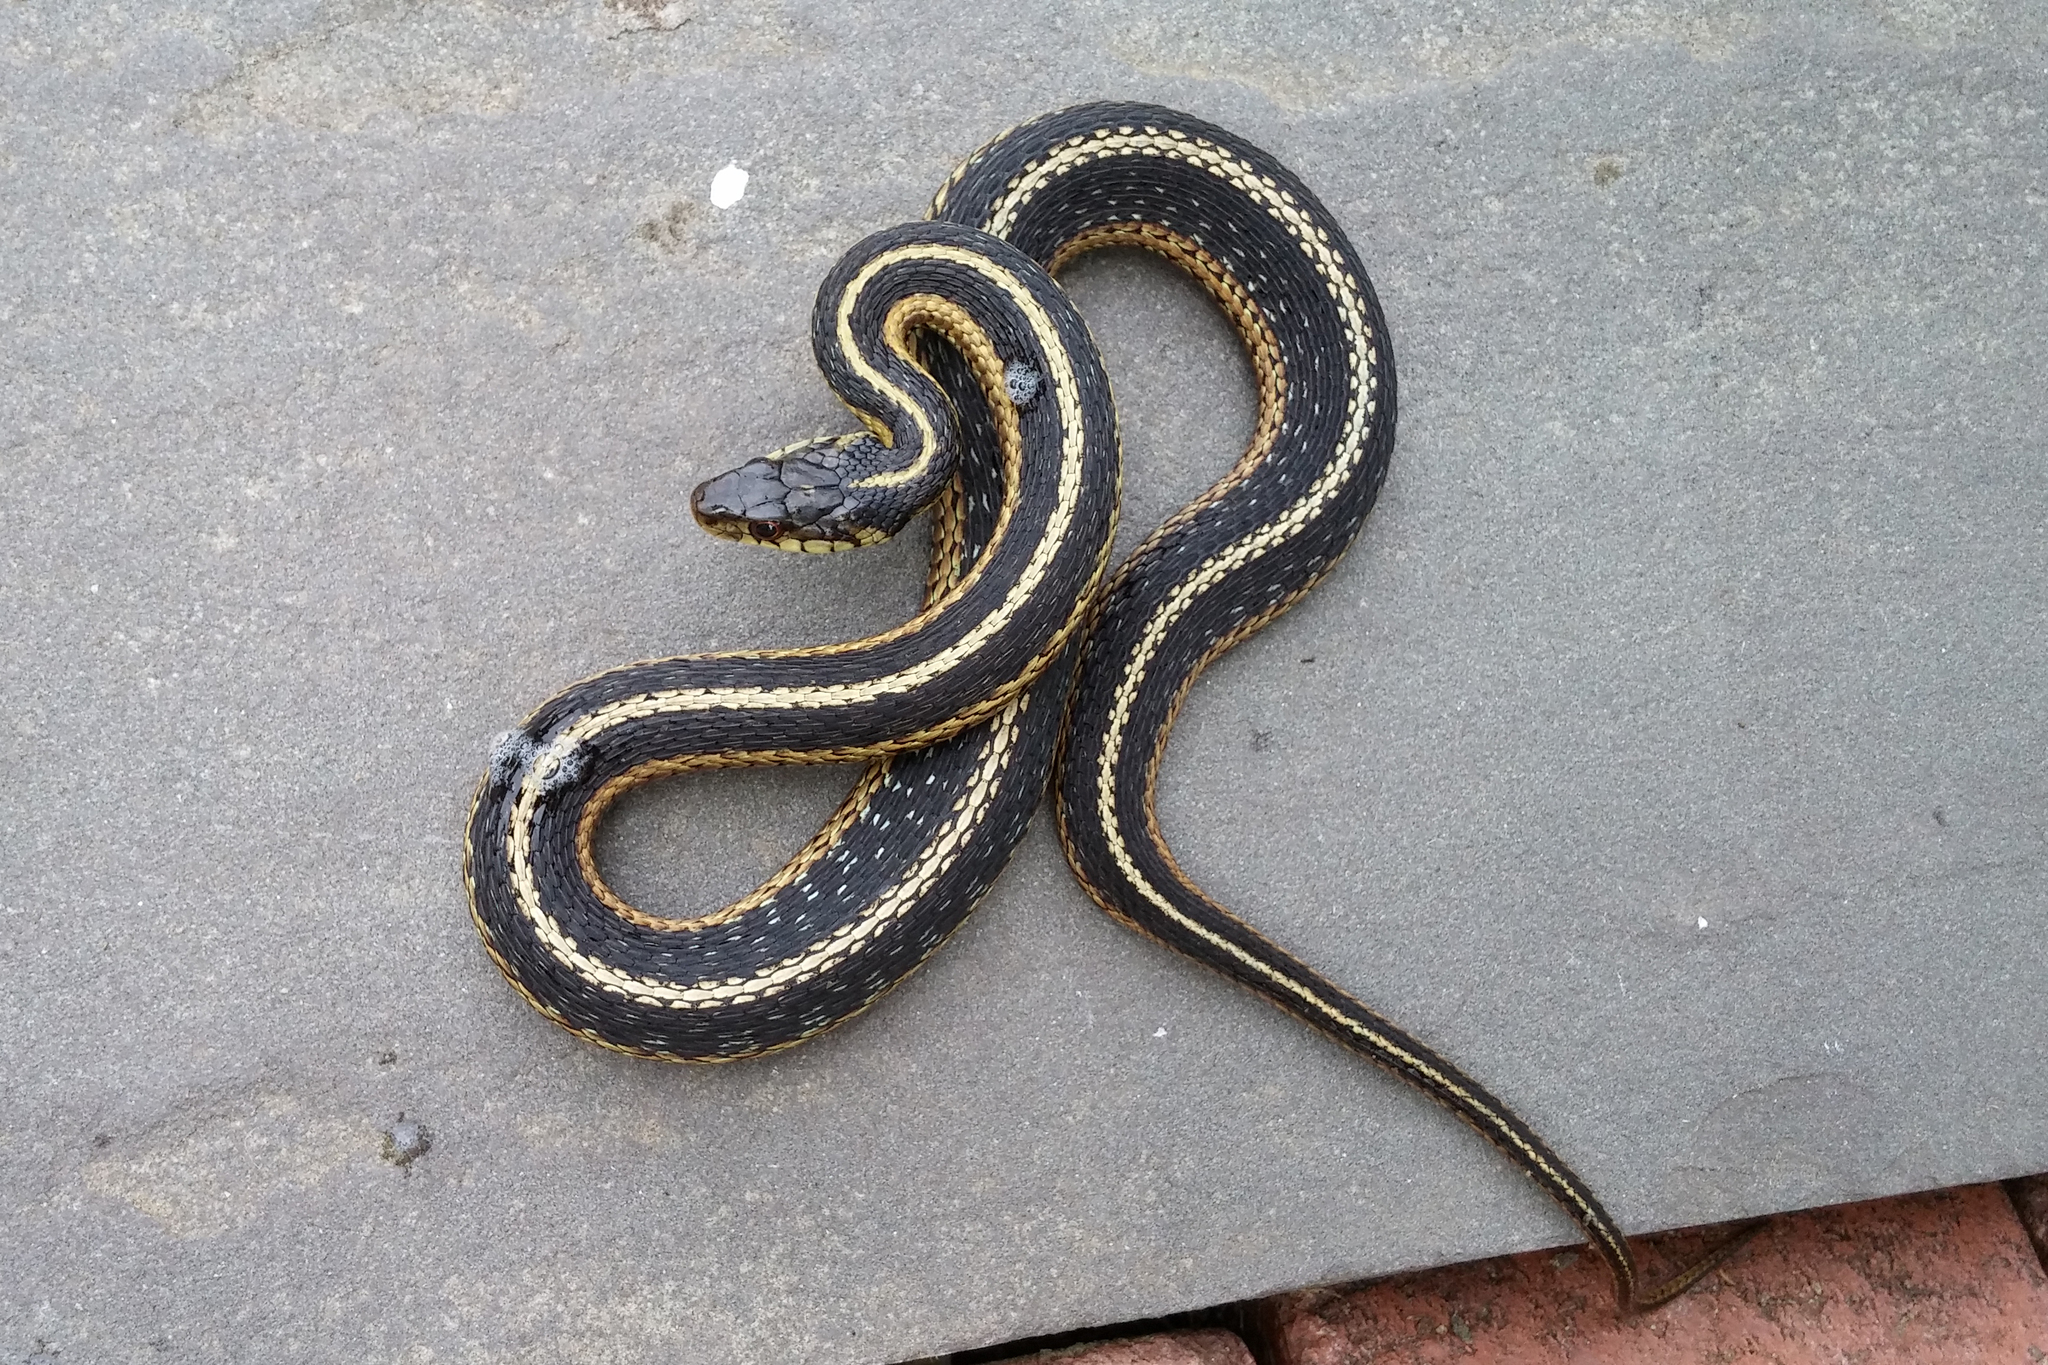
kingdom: Animalia
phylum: Chordata
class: Squamata
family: Colubridae
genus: Thamnophis
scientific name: Thamnophis sirtalis
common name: Common garter snake
